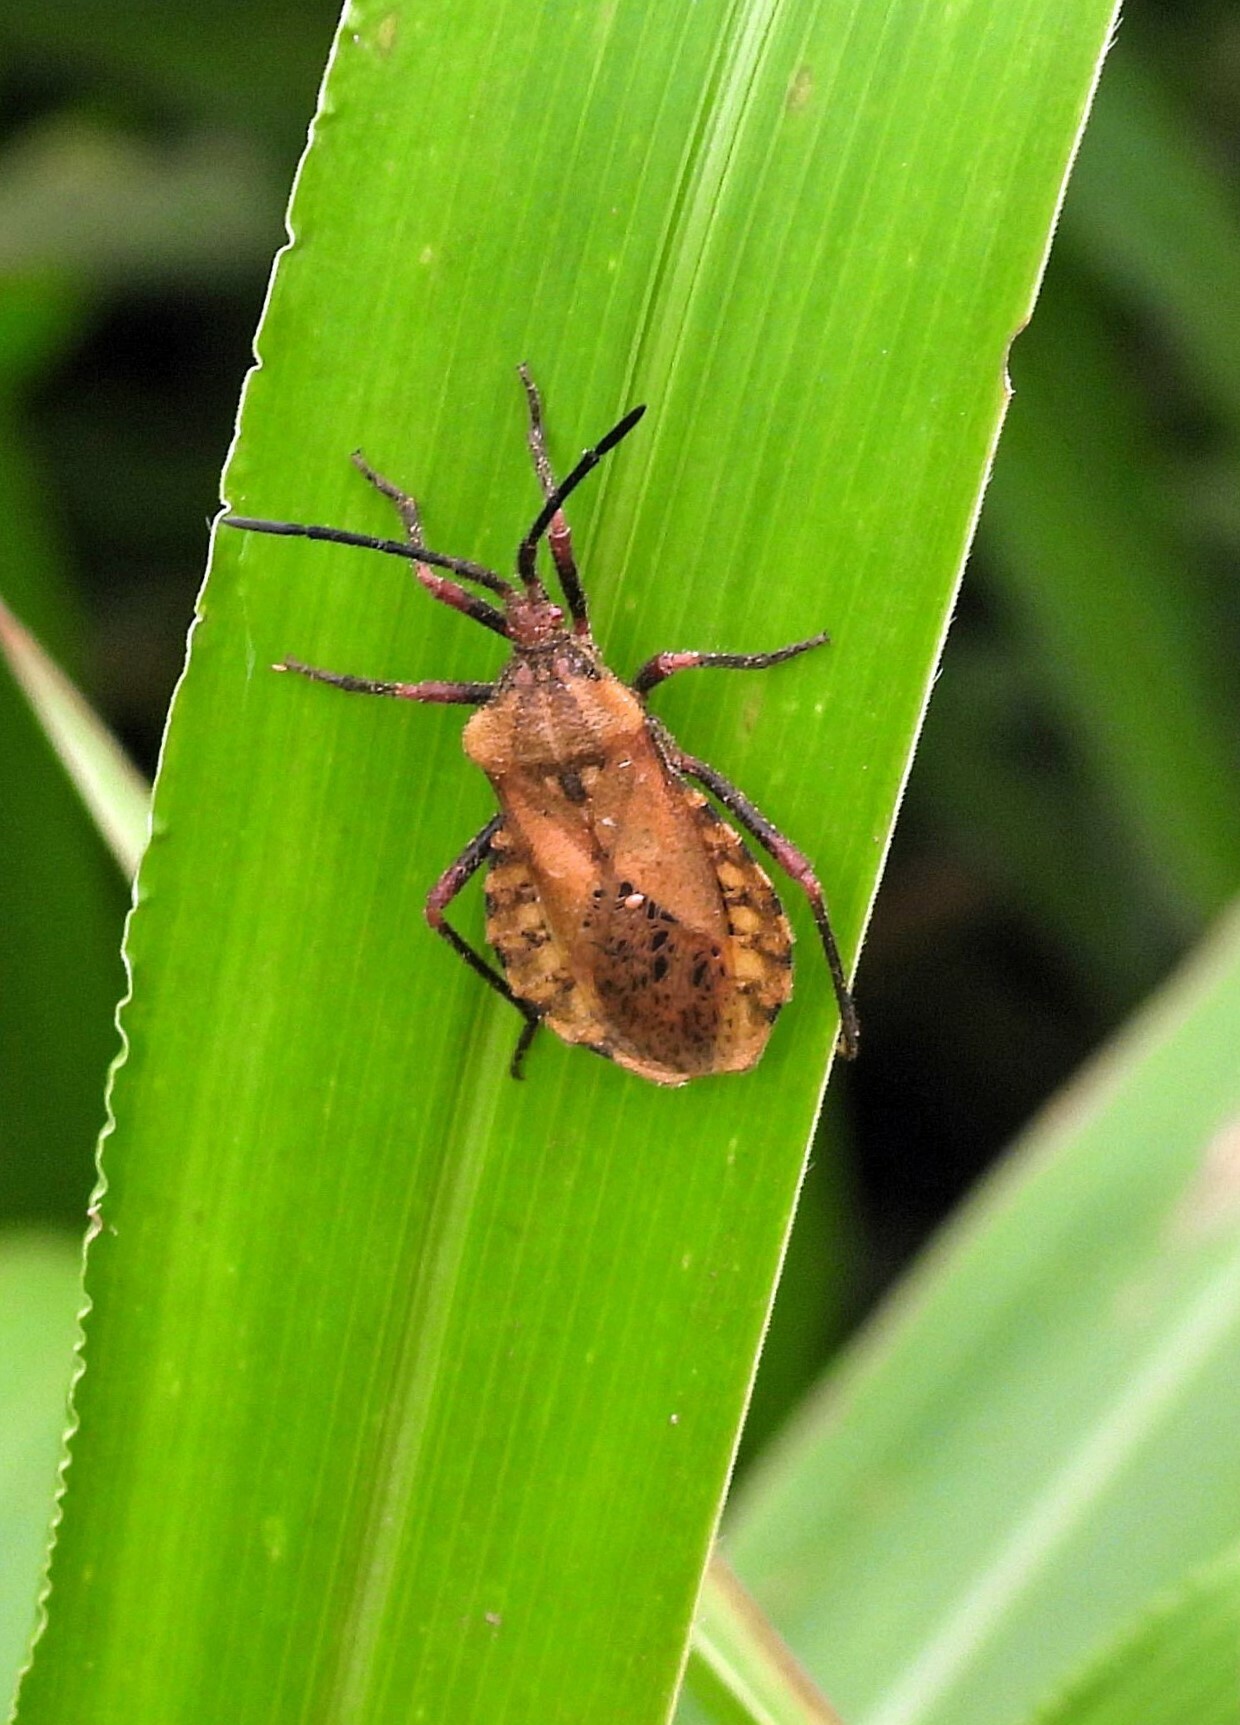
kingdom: Animalia
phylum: Arthropoda
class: Insecta
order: Hemiptera
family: Coreidae
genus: Spartocera
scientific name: Spartocera fusca
